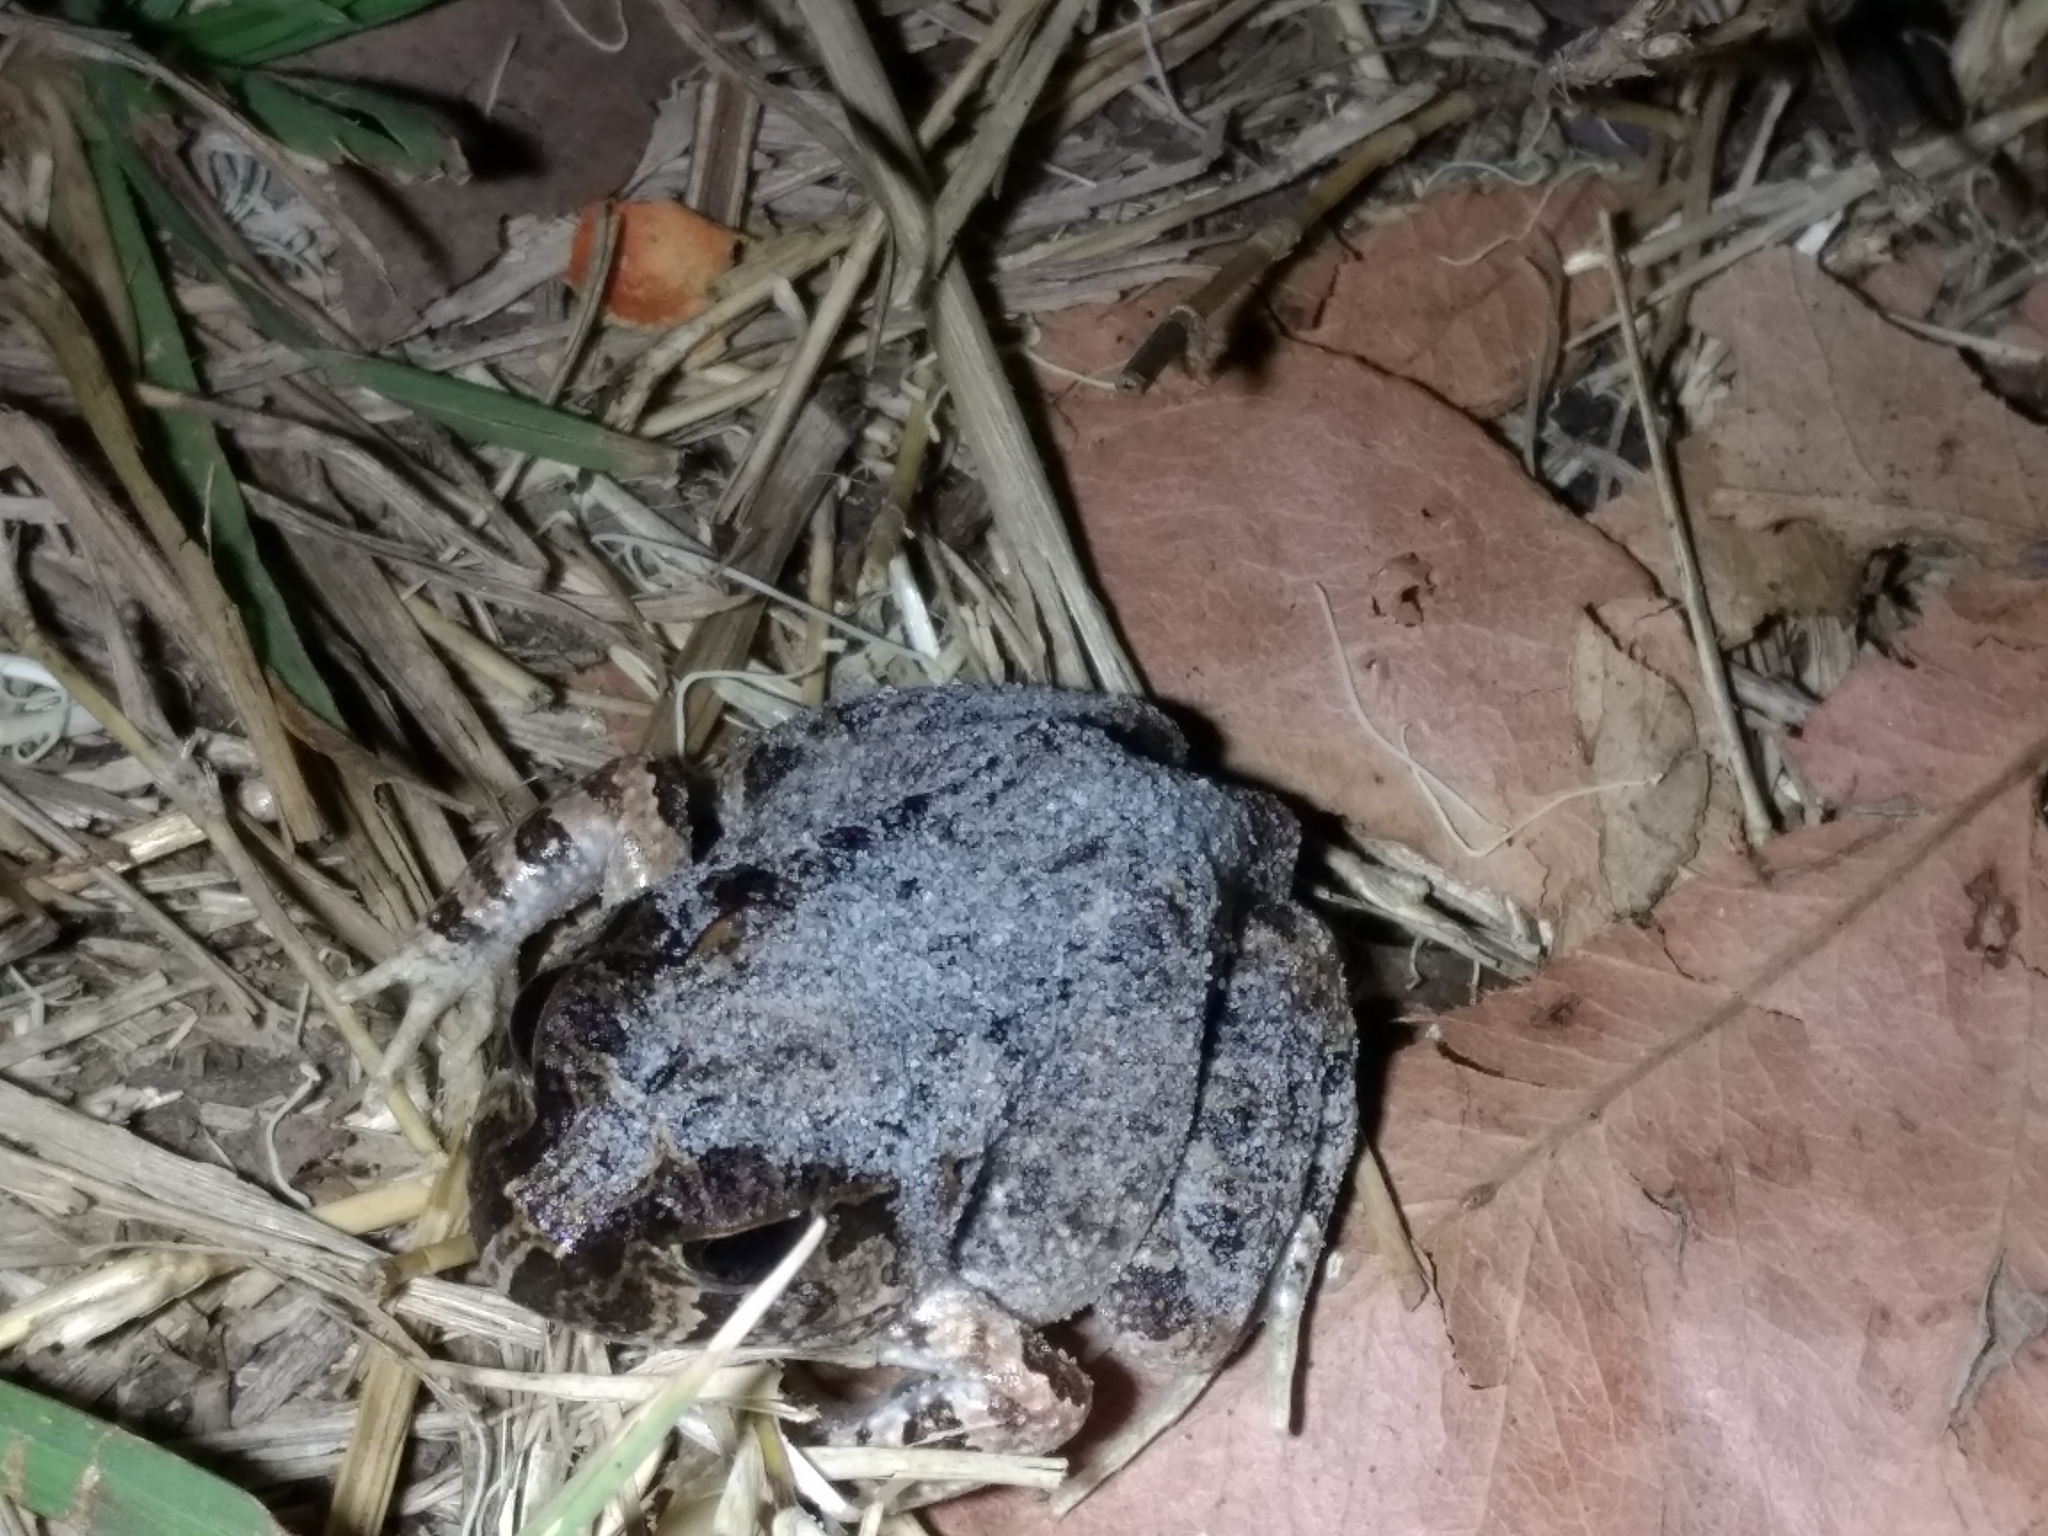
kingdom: Animalia
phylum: Chordata
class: Amphibia
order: Anura
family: Limnodynastidae
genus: Platyplectrum
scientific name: Platyplectrum ornatum
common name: Ornate burrowing frog
